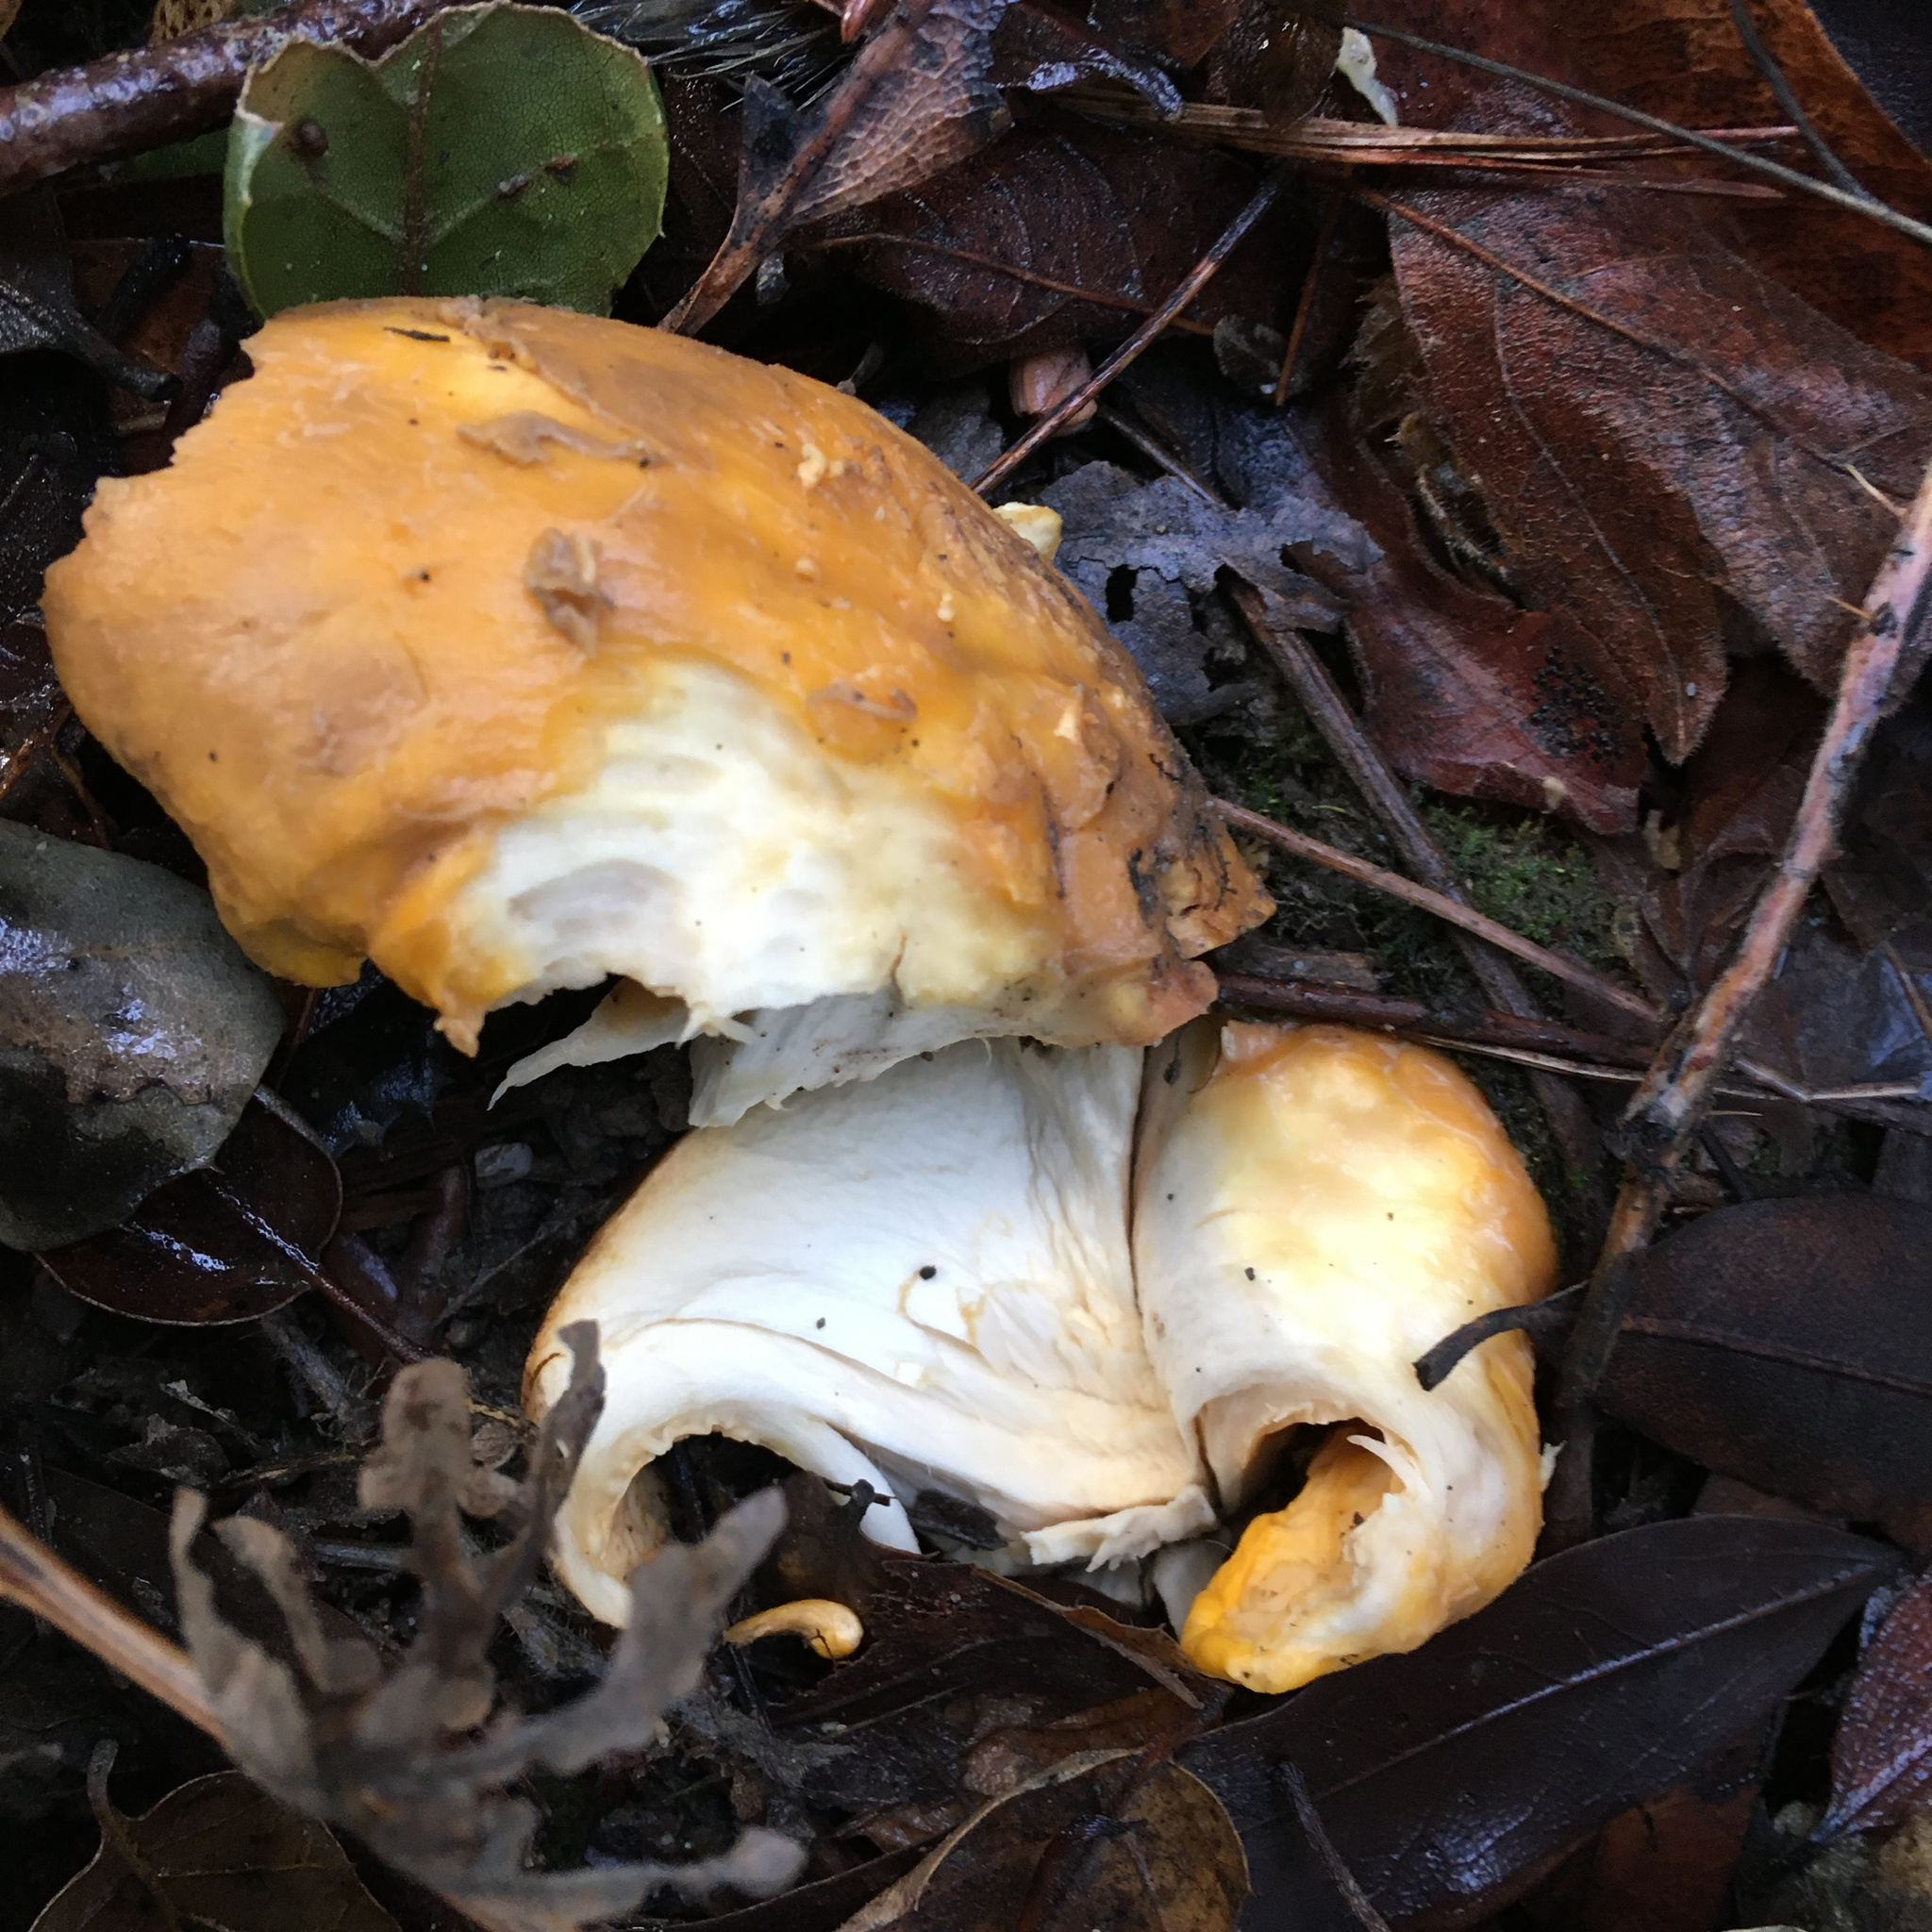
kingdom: Fungi
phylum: Basidiomycota
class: Agaricomycetes
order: Cantharellales
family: Hydnaceae
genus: Cantharellus
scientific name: Cantharellus californicus
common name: California golden chanterelle
